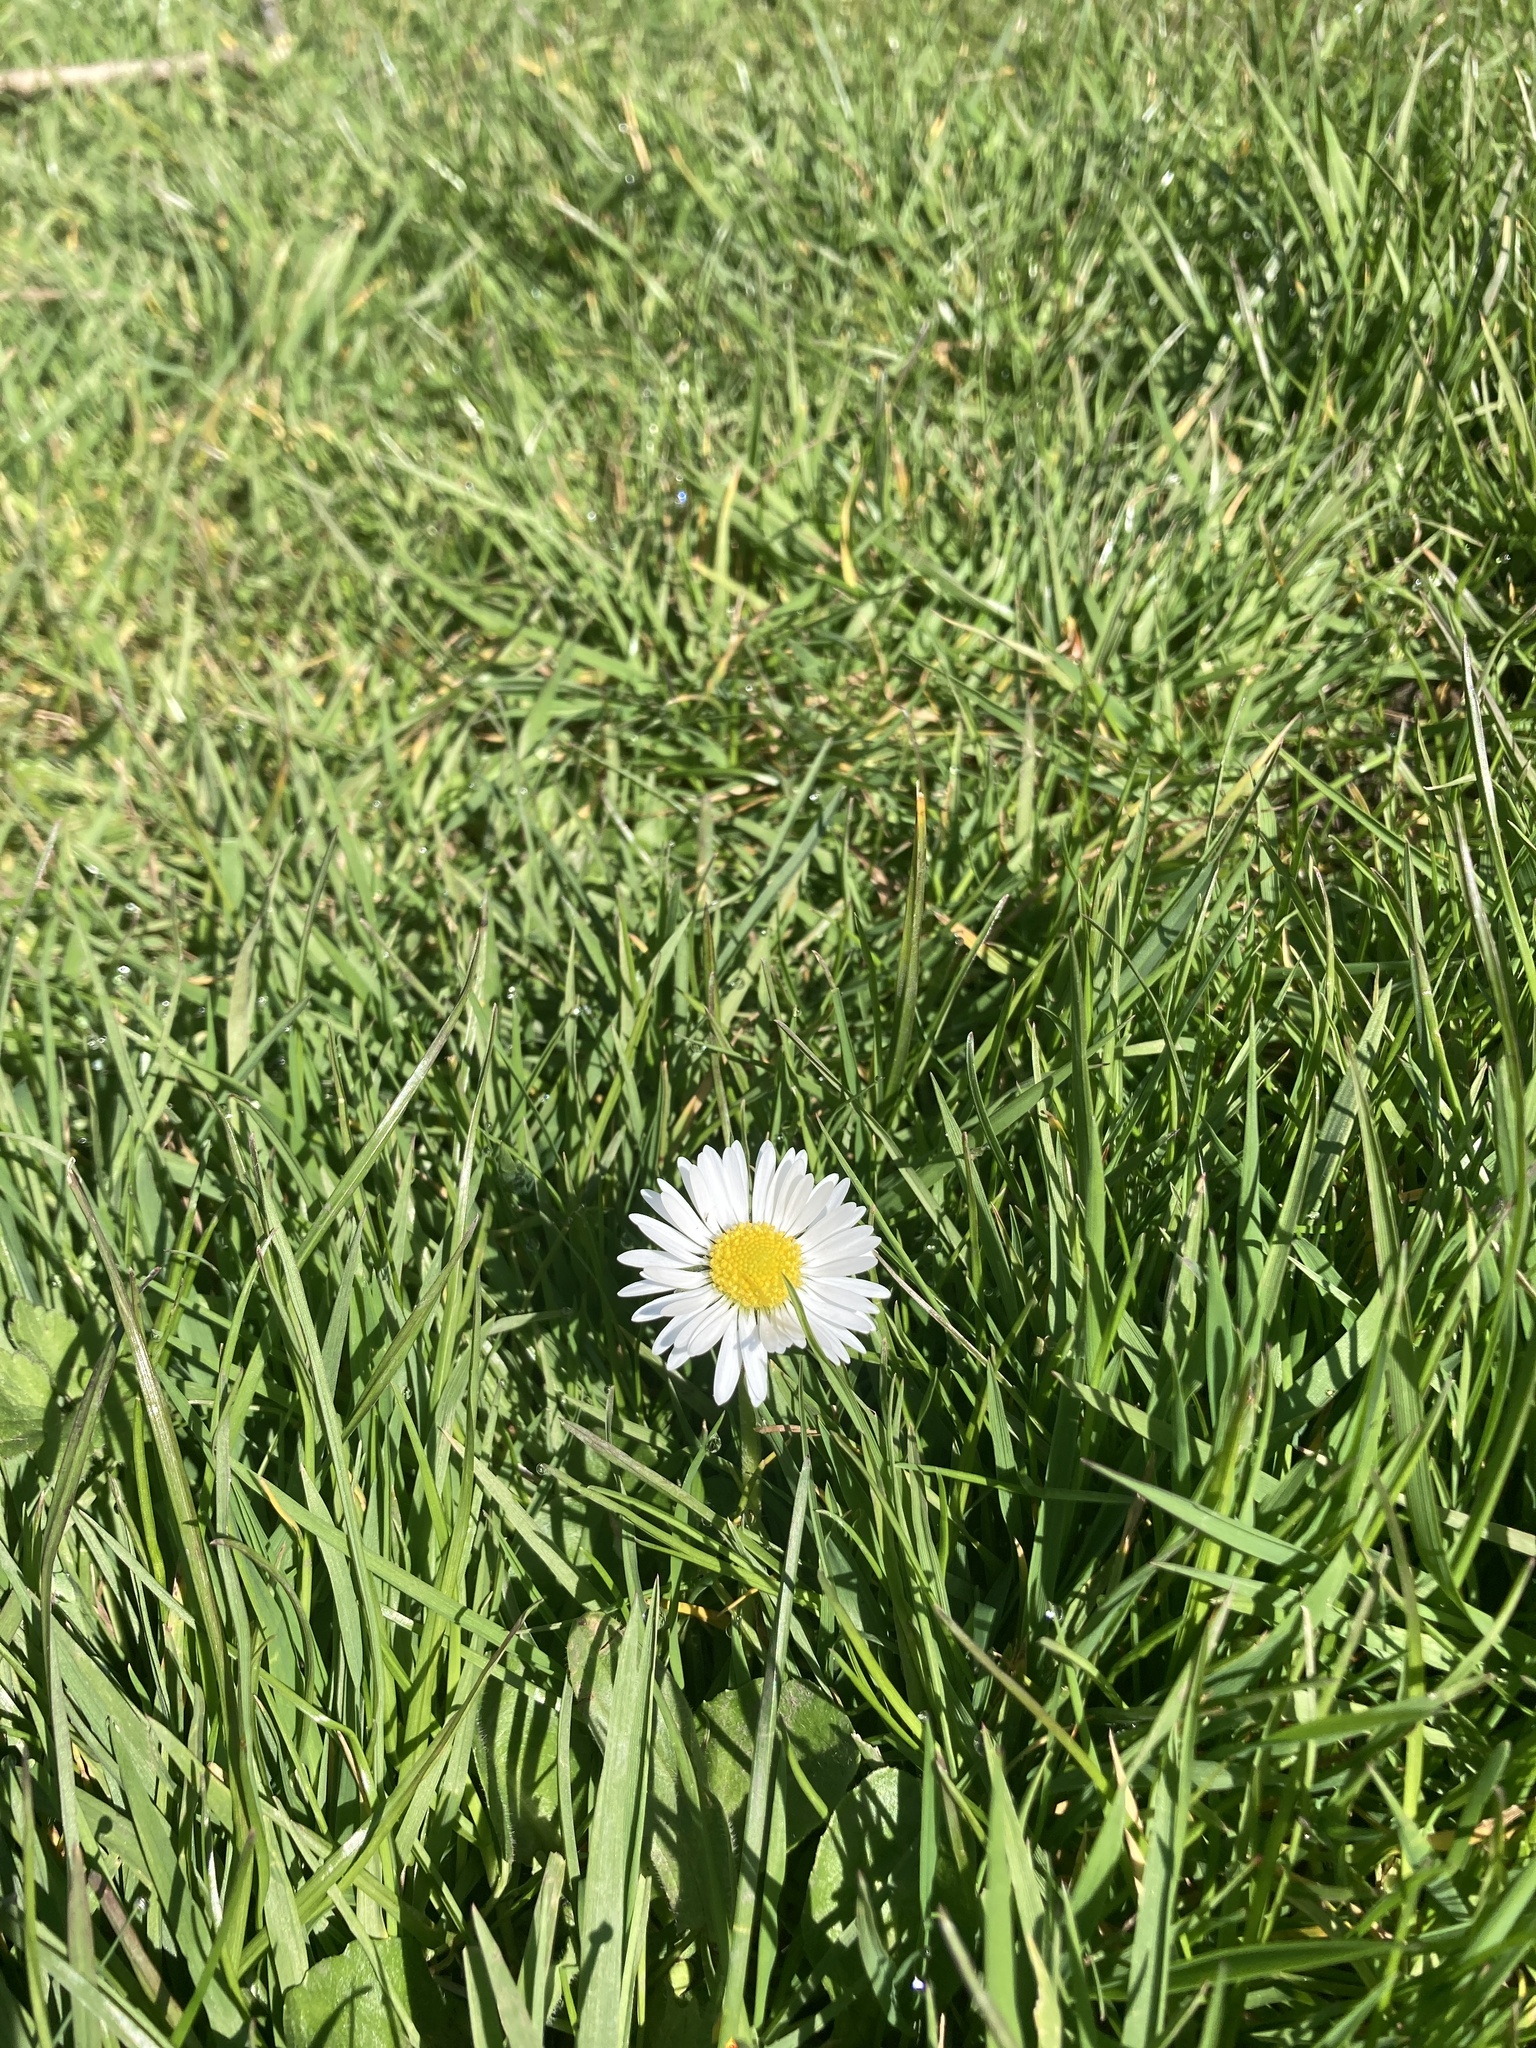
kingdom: Plantae
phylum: Tracheophyta
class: Magnoliopsida
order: Asterales
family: Asteraceae
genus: Bellis
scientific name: Bellis perennis
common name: Lawndaisy
